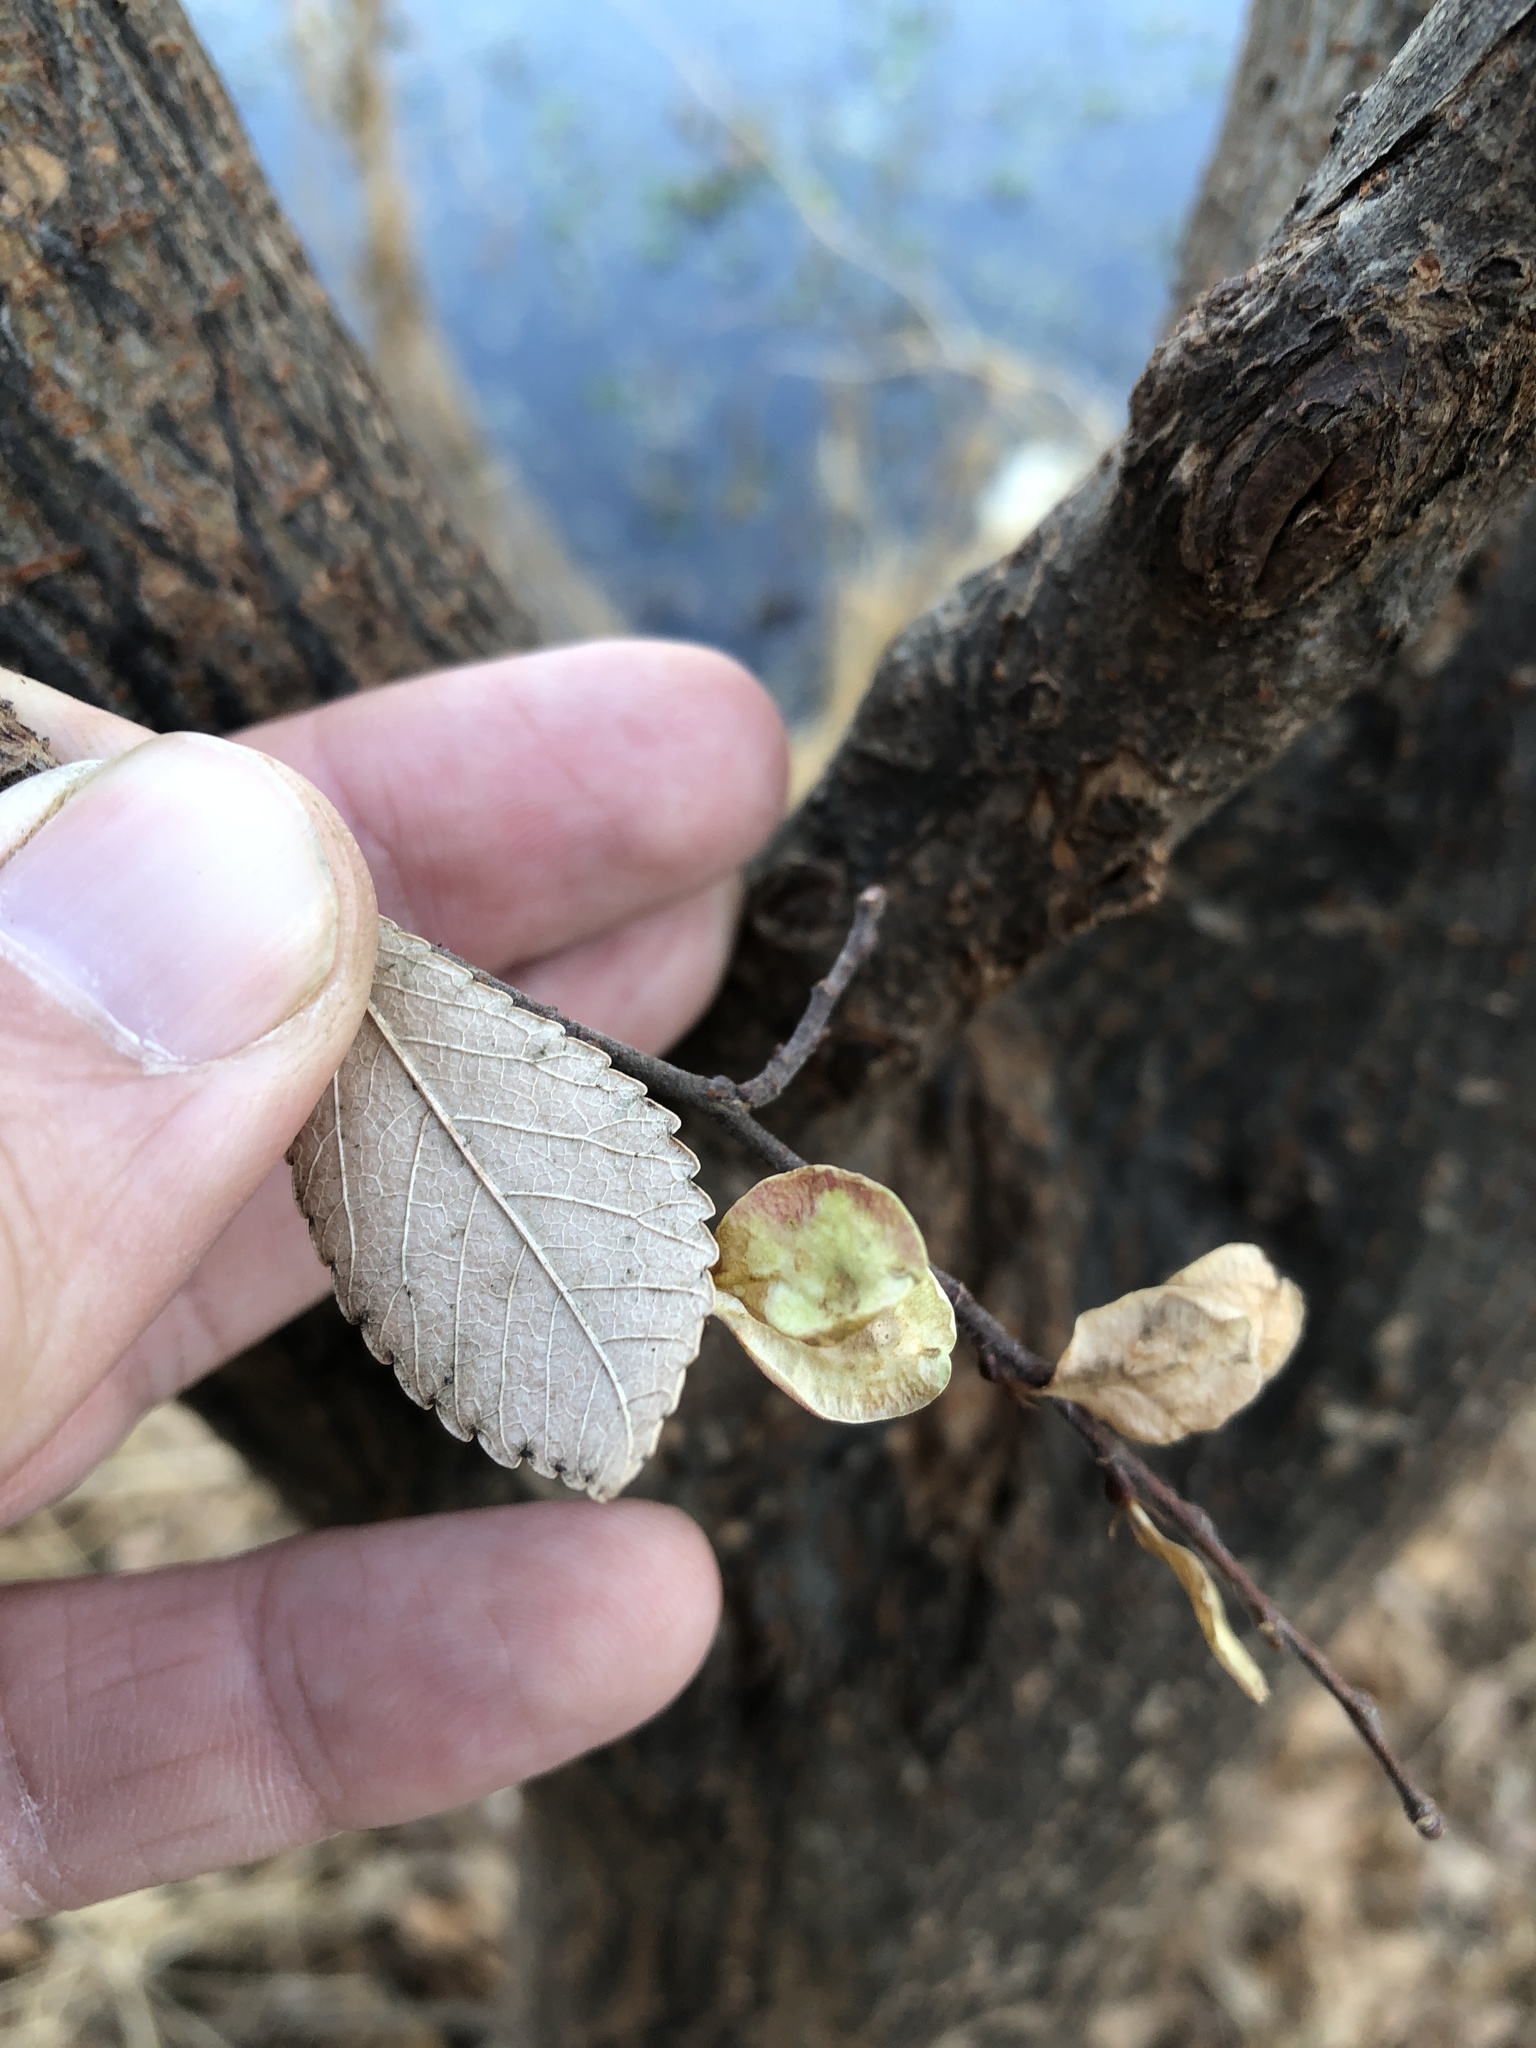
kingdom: Plantae
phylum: Tracheophyta
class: Magnoliopsida
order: Rosales
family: Ulmaceae
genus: Ulmus
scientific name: Ulmus parvifolia
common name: Chinese elm
